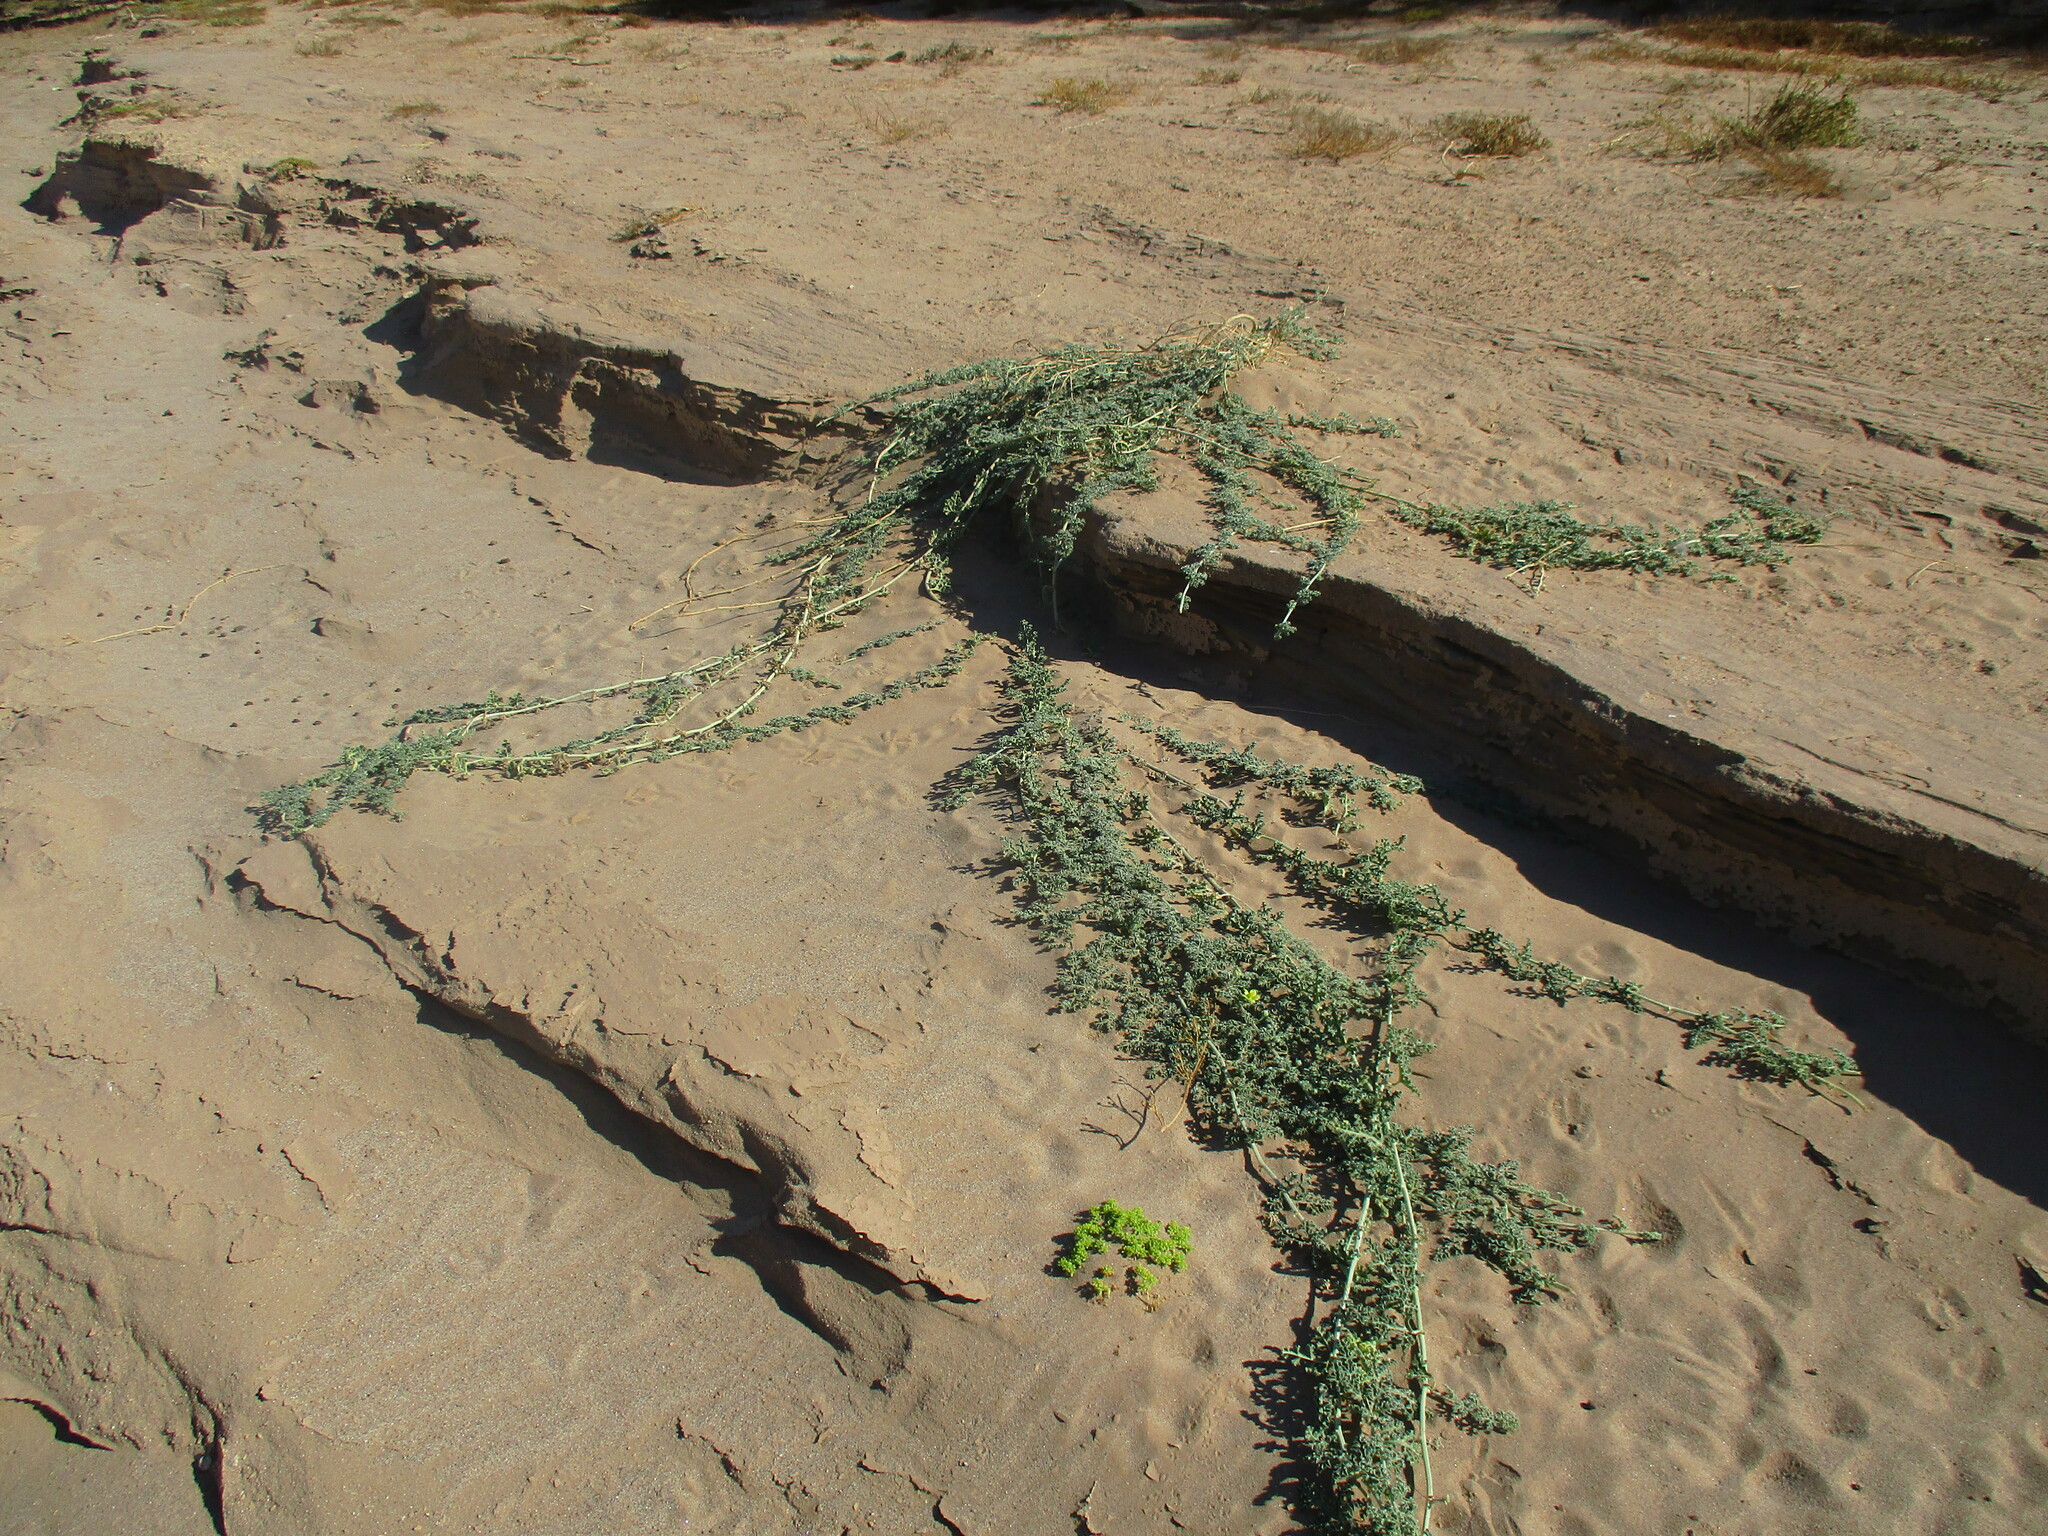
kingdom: Plantae
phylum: Tracheophyta
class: Magnoliopsida
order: Cucurbitales
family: Cucurbitaceae
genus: Citrullus
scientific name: Citrullus ecirrhosus
